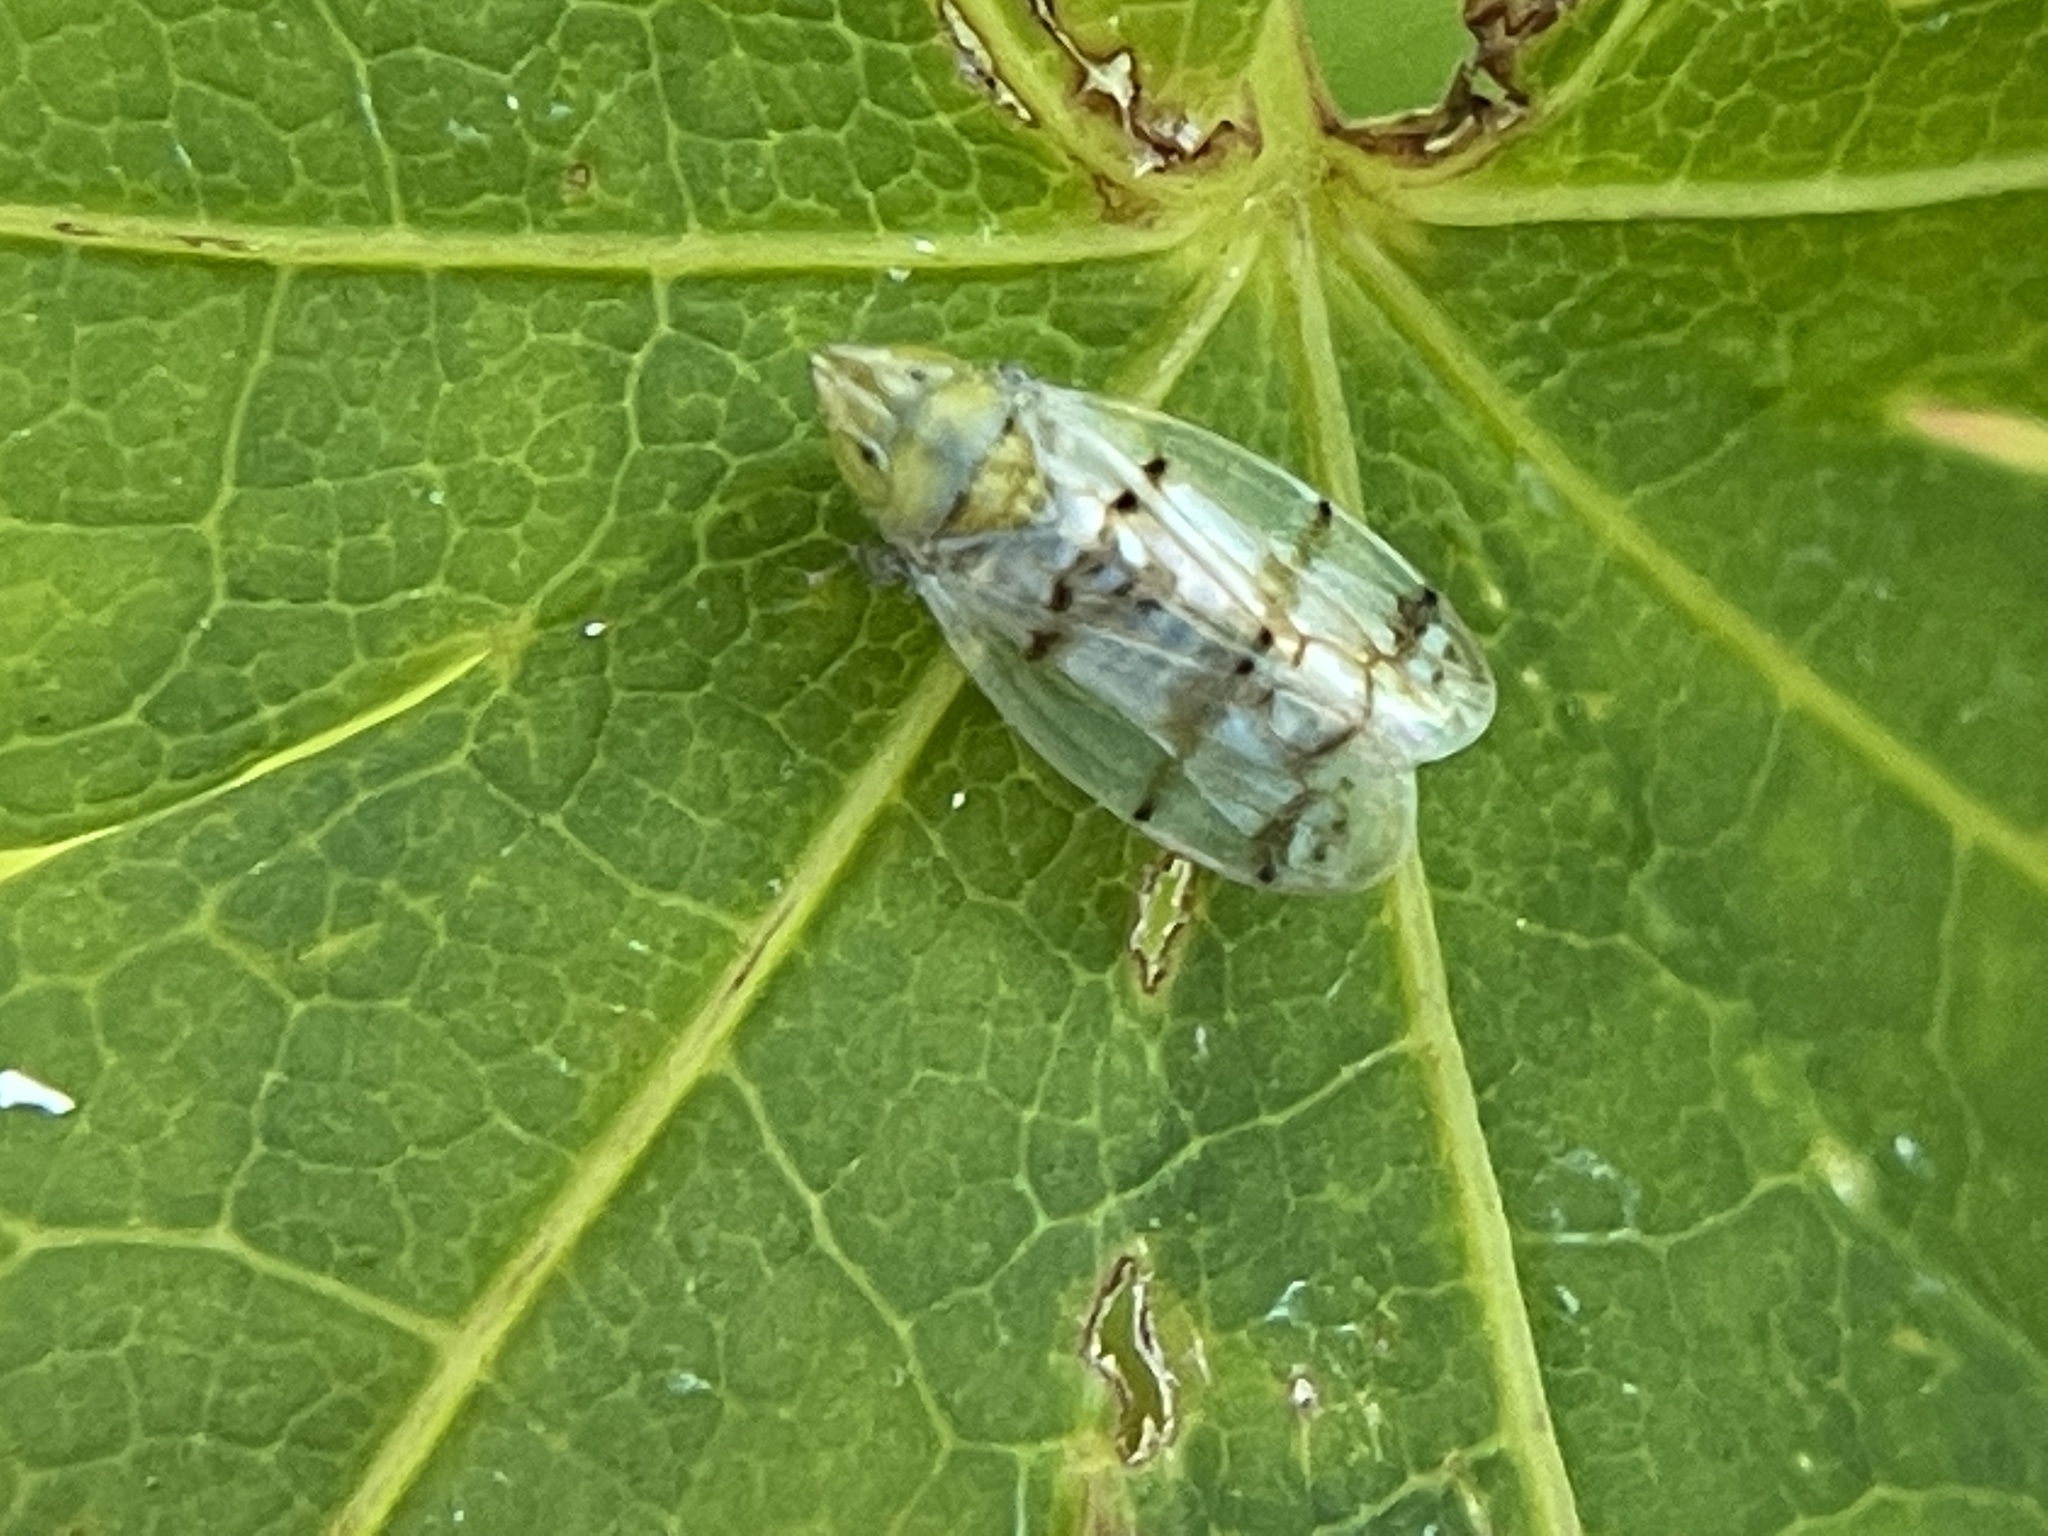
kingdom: Animalia
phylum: Arthropoda
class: Insecta
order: Hemiptera
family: Cicadellidae
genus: Japananus
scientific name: Japananus hyalinus
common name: The japanese maple leafhopper
